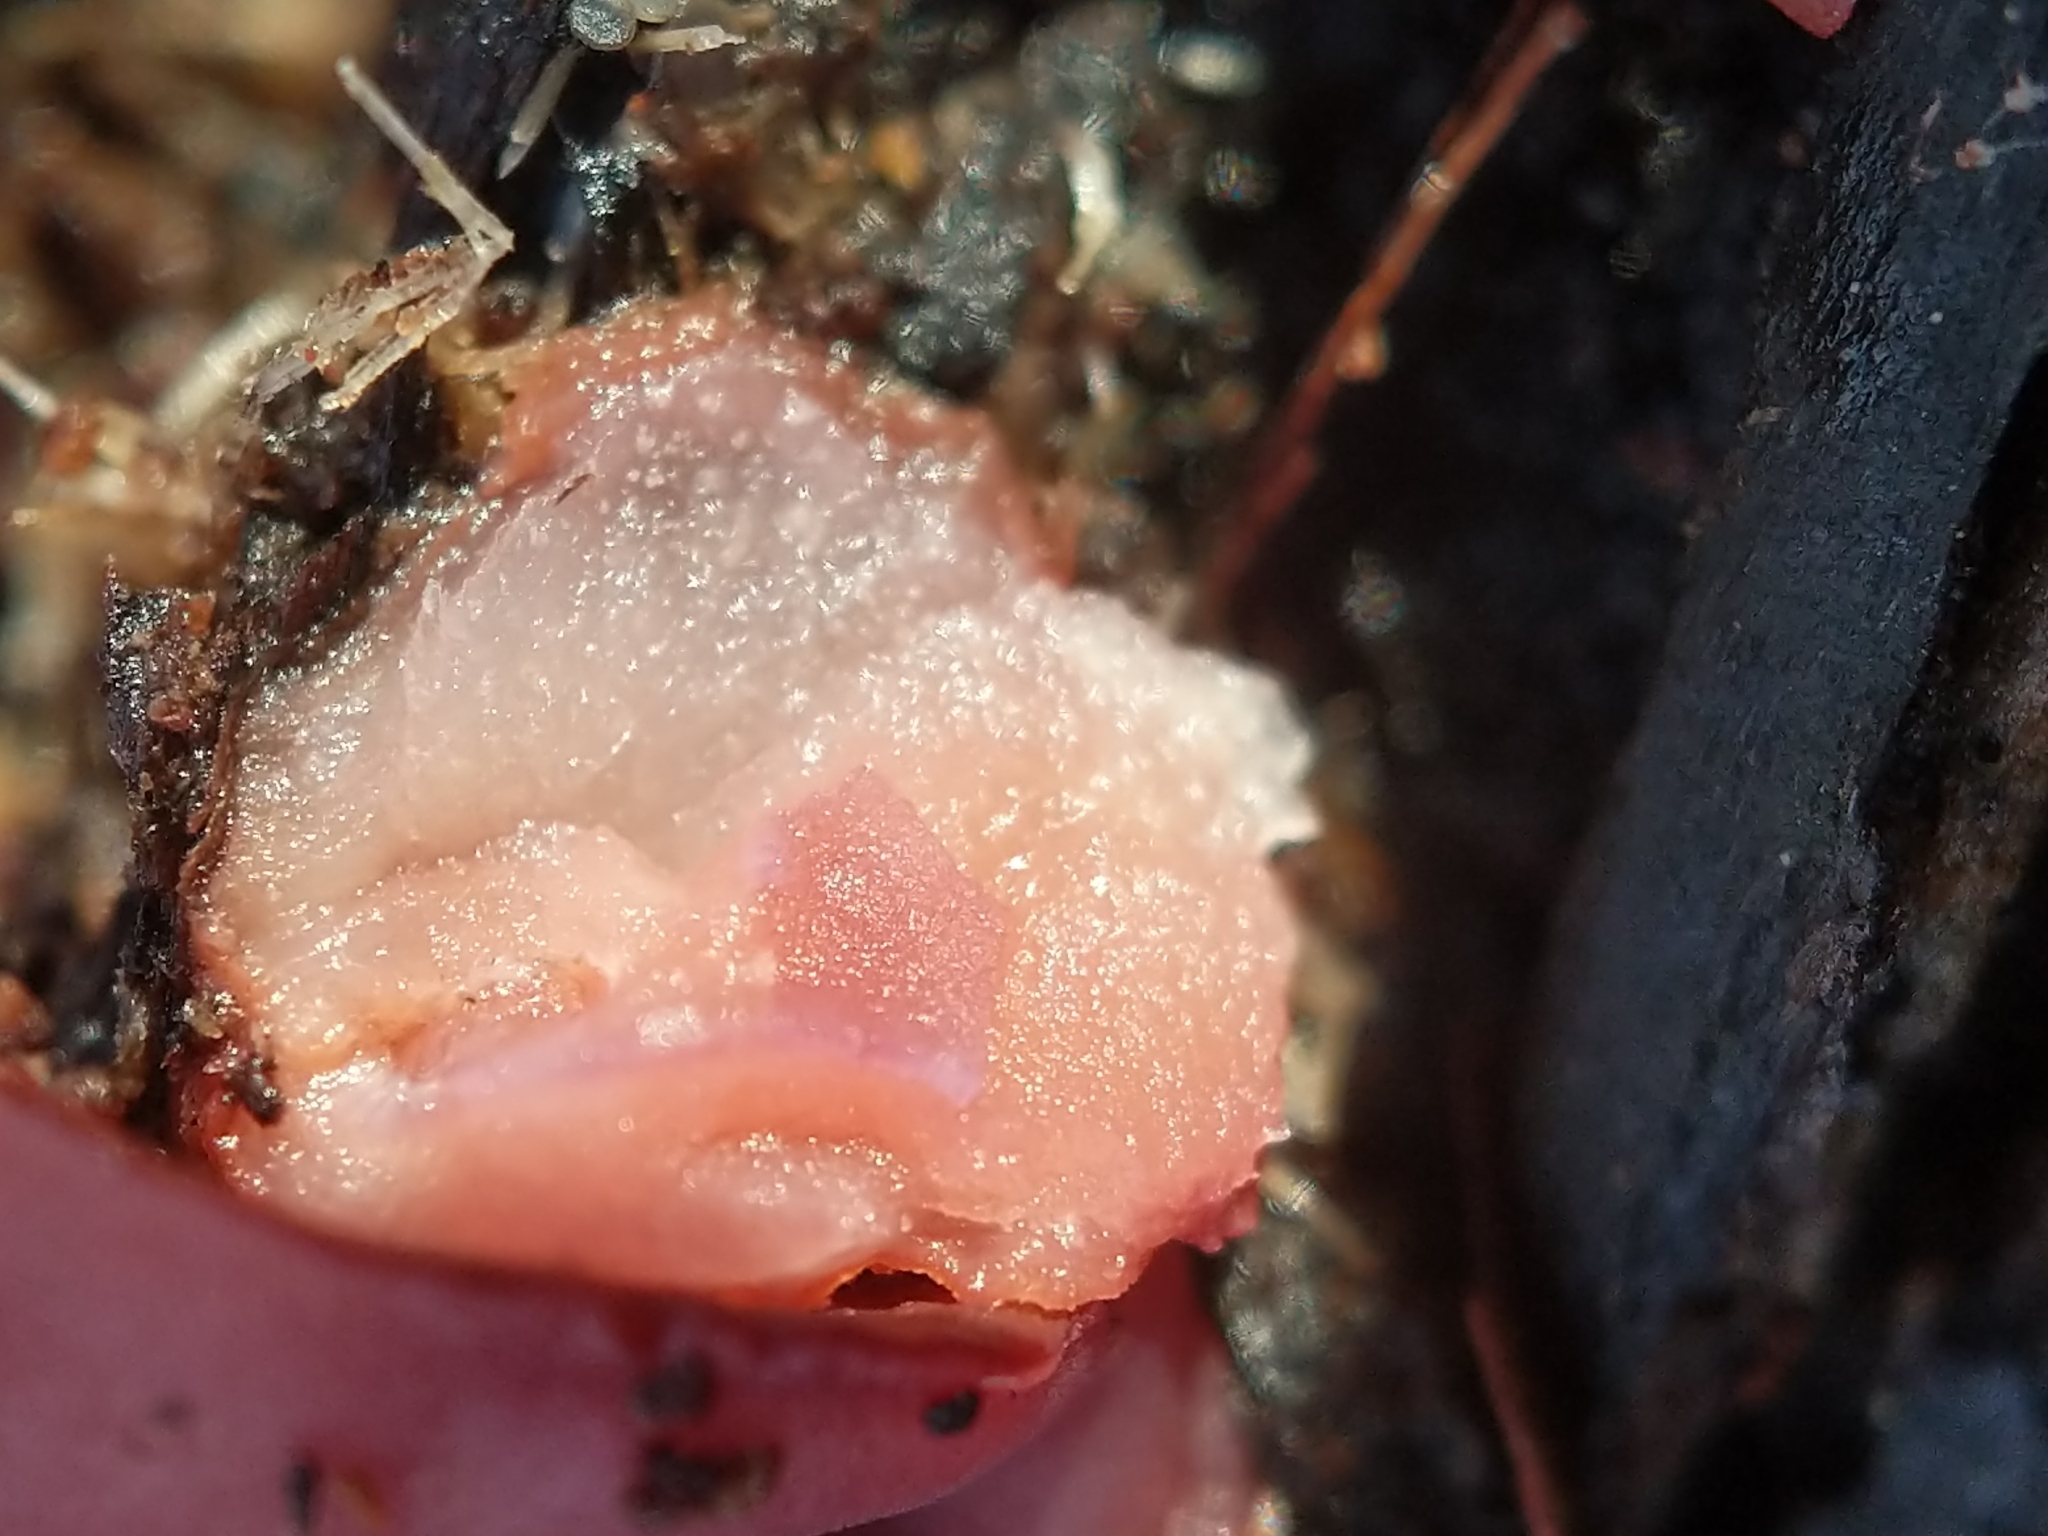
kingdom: Fungi
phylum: Ascomycota
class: Leotiomycetes
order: Helotiales
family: Gelatinodiscaceae
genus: Ascocoryne
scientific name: Ascocoryne sarcoides
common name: Purple jellydisc
